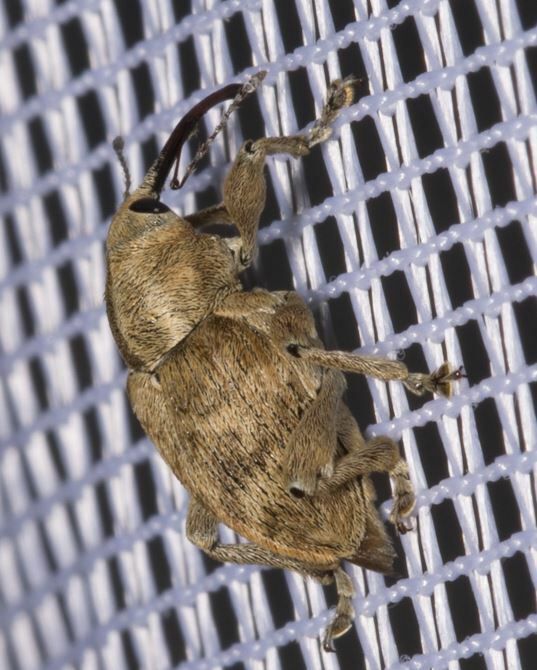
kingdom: Animalia
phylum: Arthropoda
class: Insecta
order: Coleoptera
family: Curculionidae
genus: Curculio
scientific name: Curculio venosus
